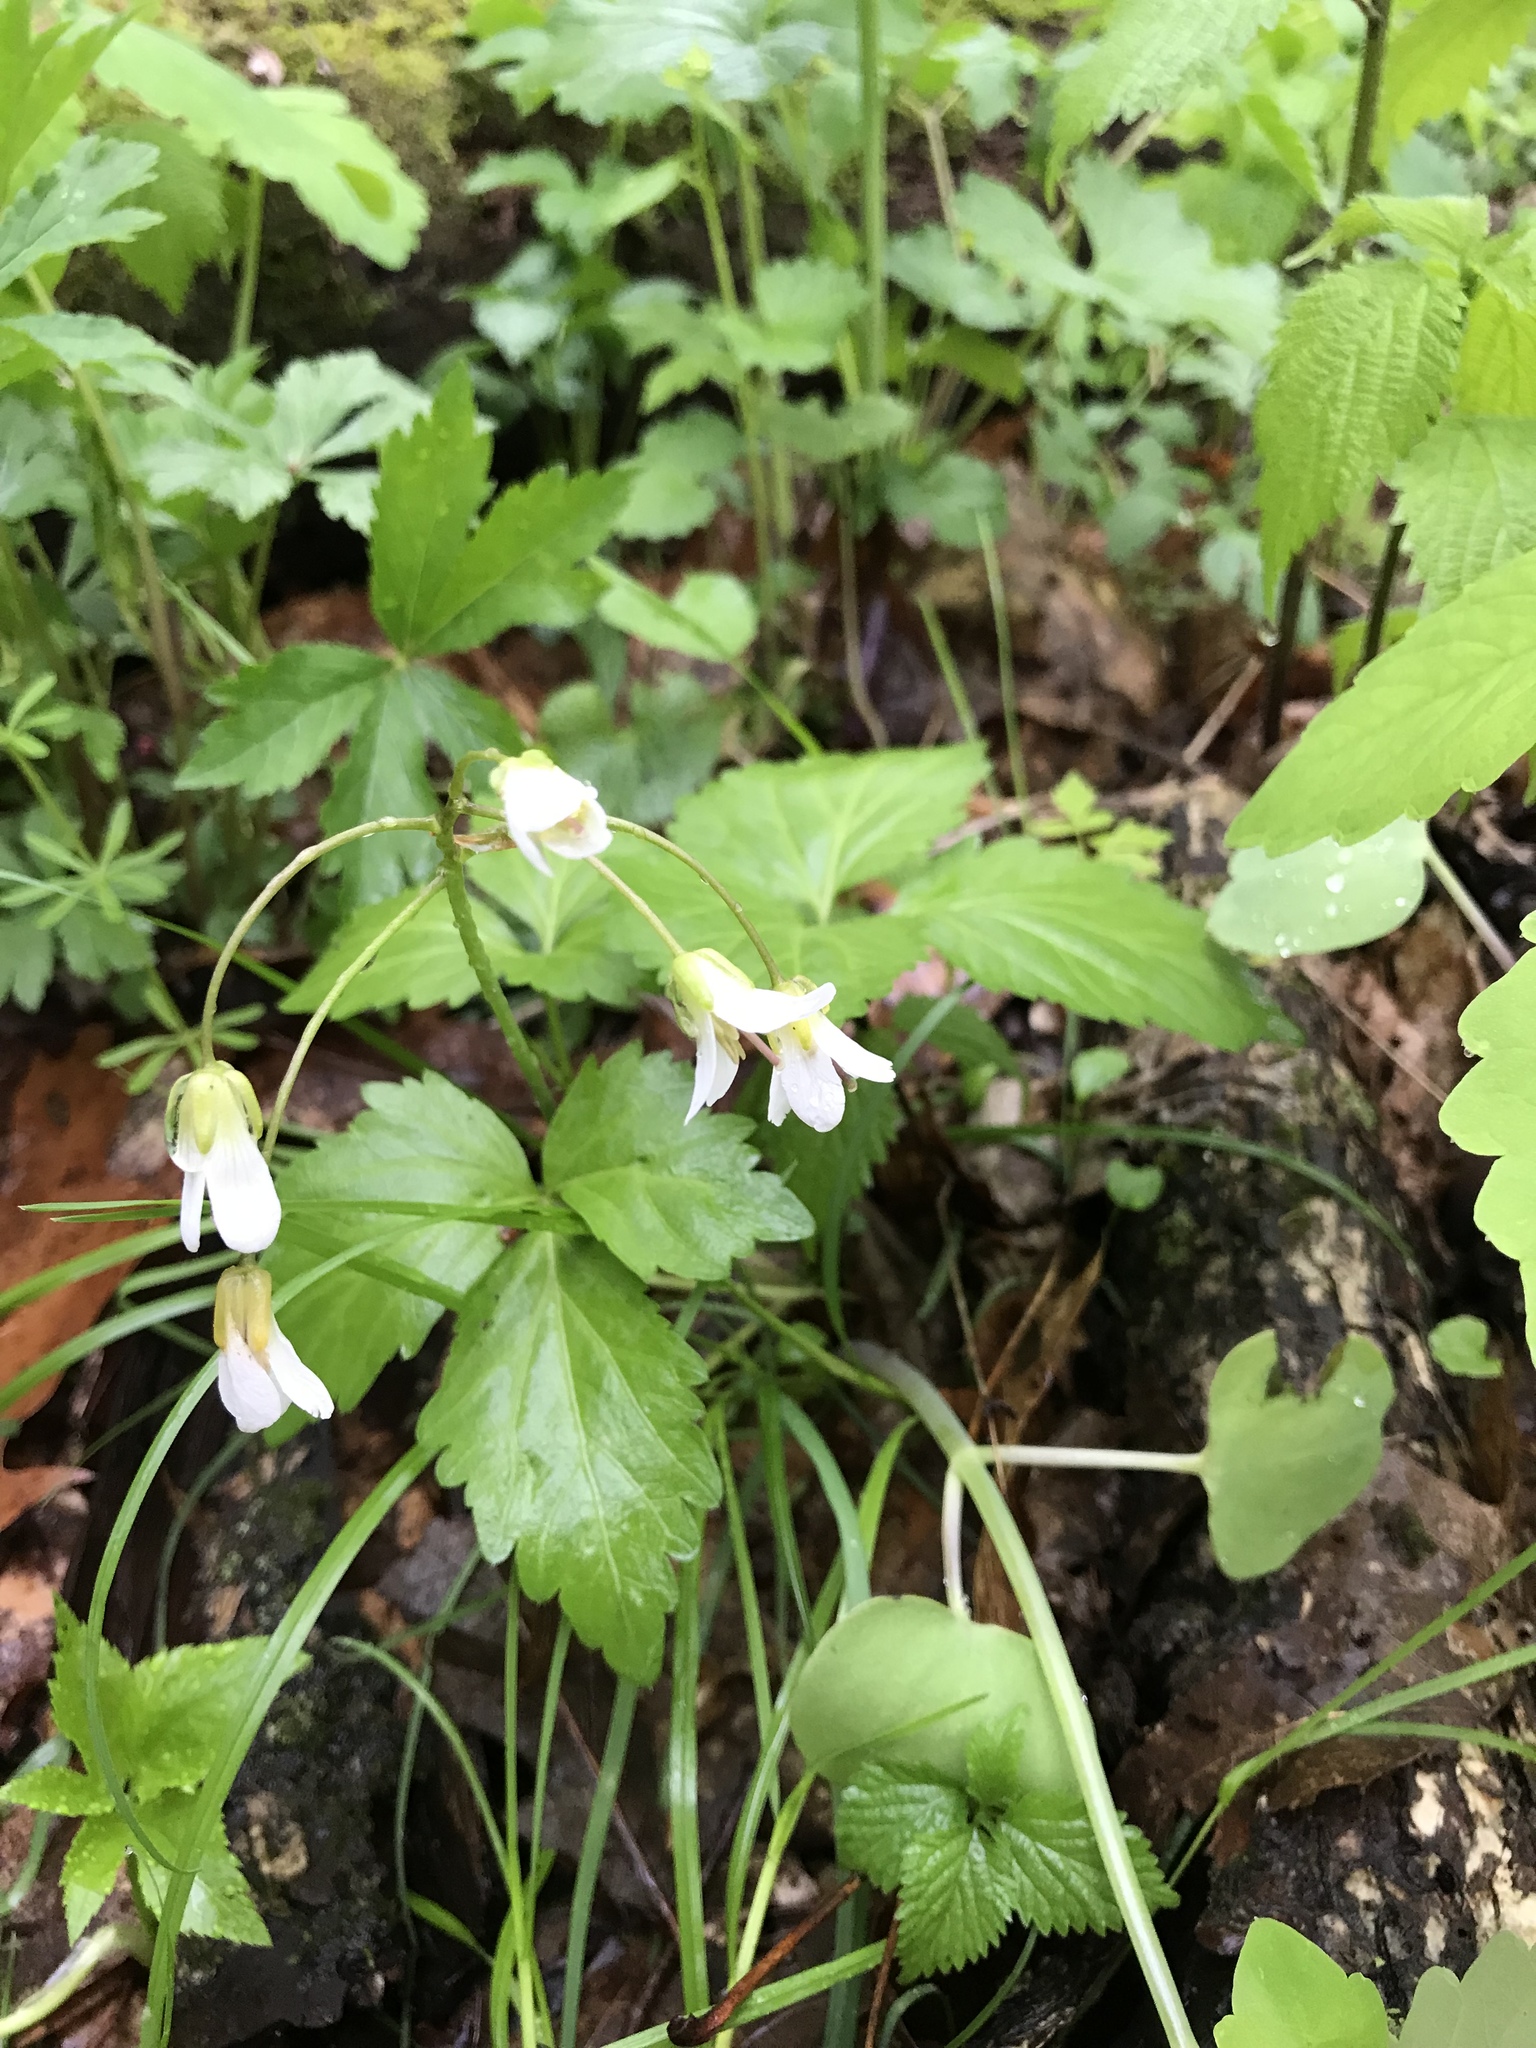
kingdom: Plantae
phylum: Tracheophyta
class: Magnoliopsida
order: Brassicales
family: Brassicaceae
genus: Cardamine
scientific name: Cardamine diphylla
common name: Broad-leaved toothwort
